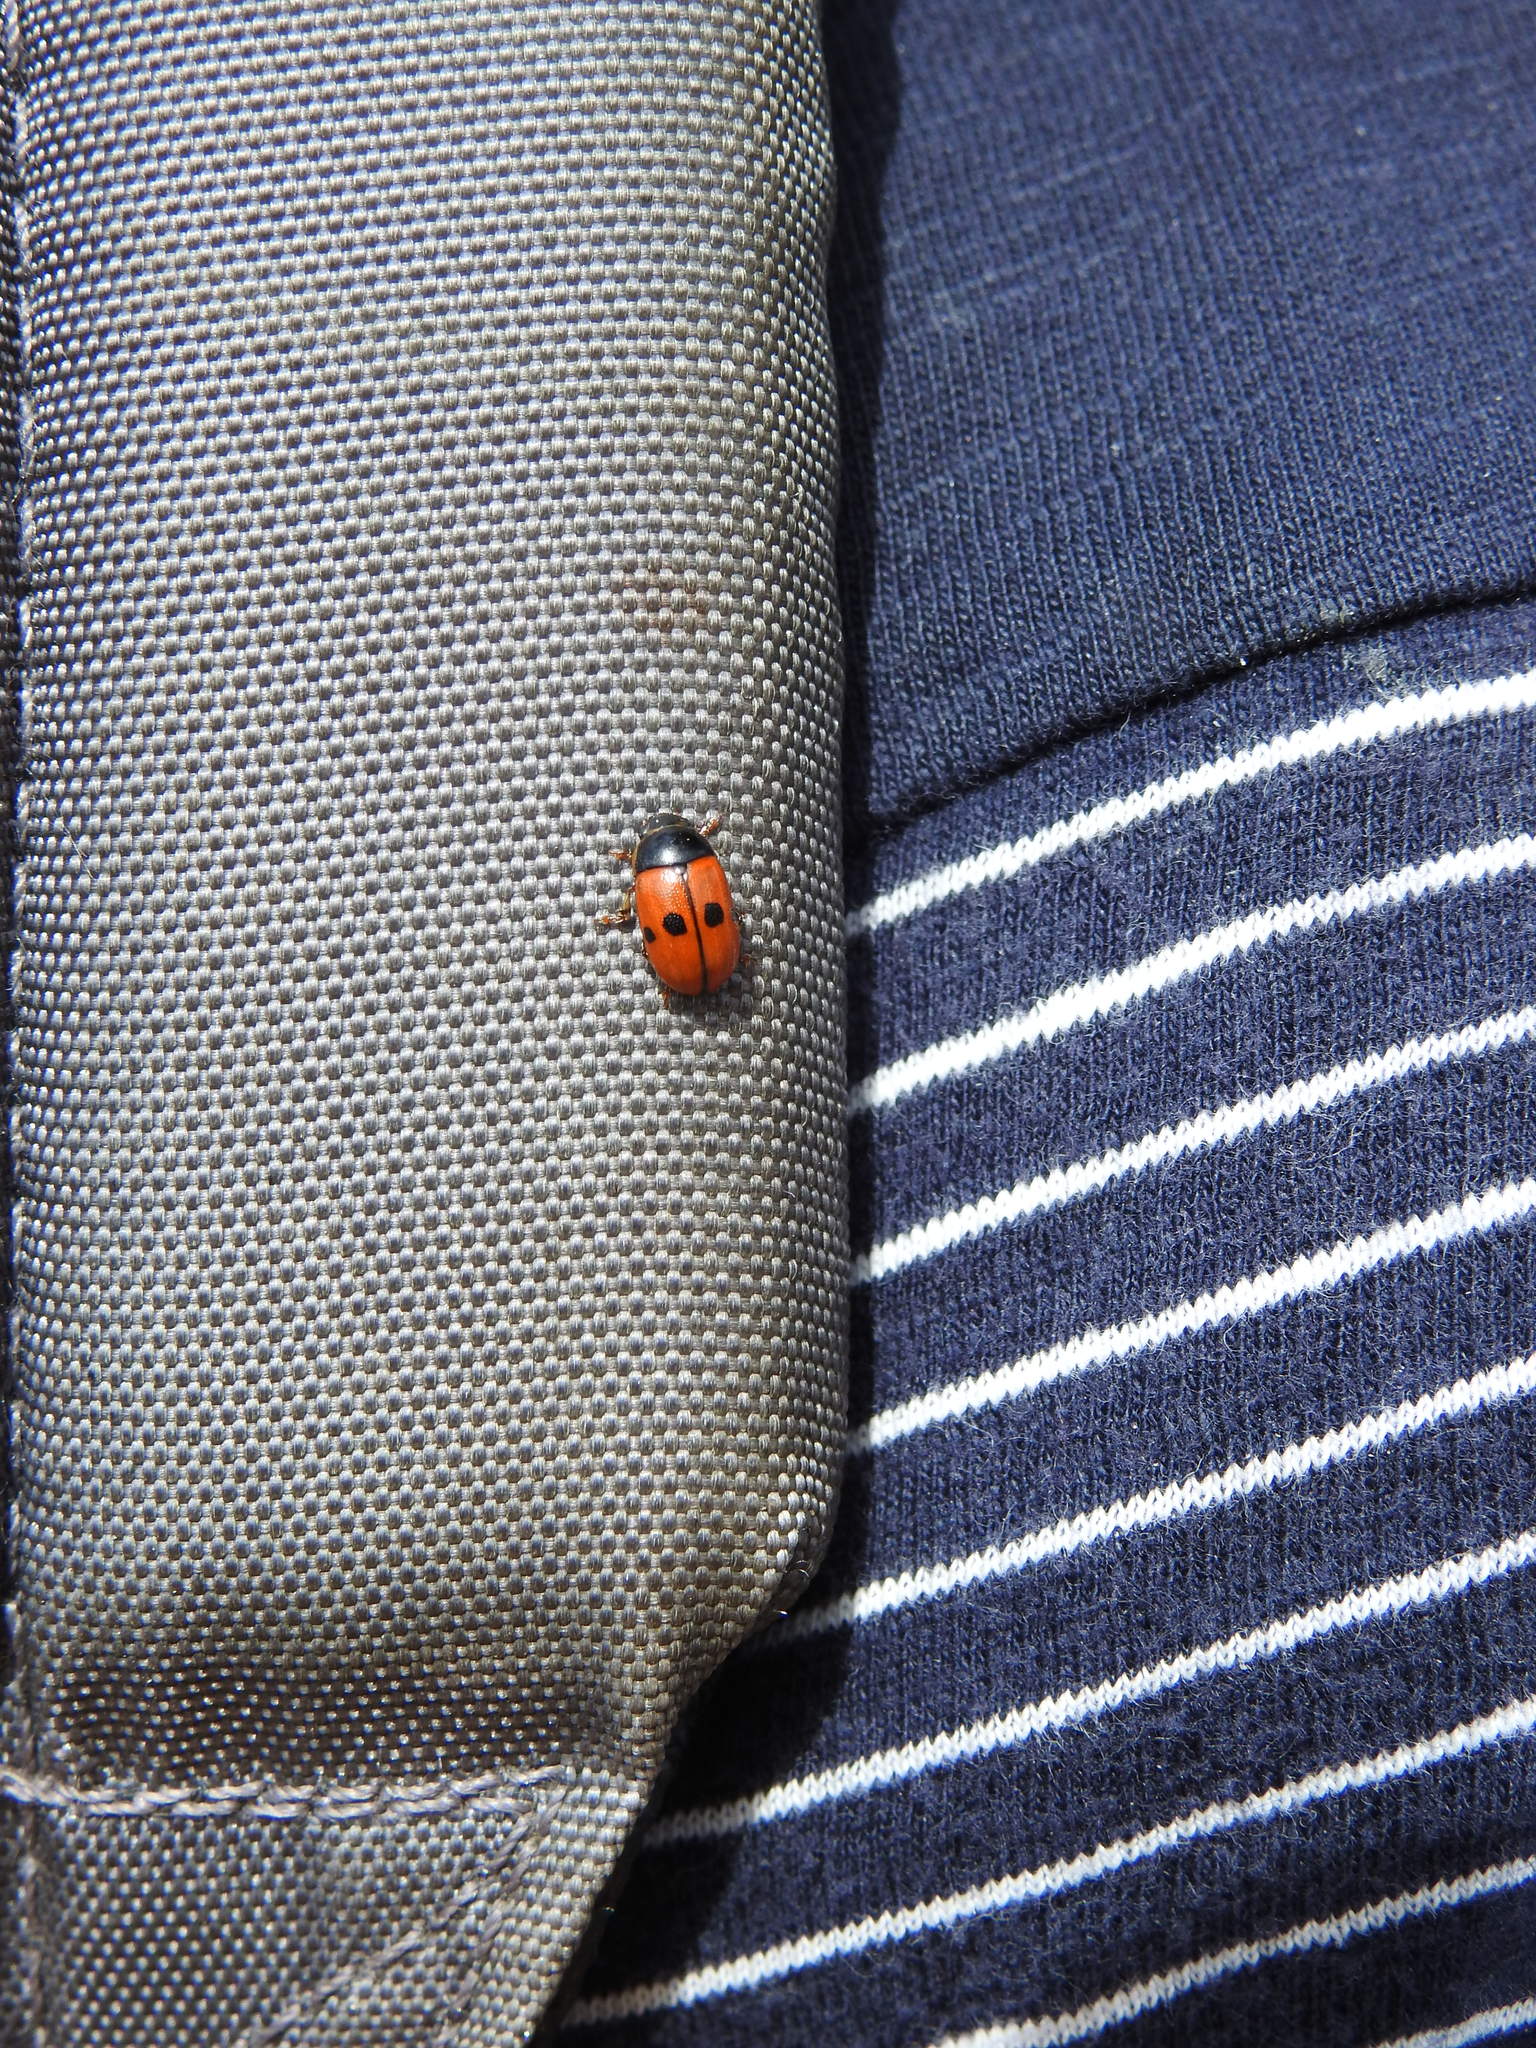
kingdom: Animalia
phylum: Arthropoda
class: Insecta
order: Coleoptera
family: Chrysomelidae
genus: Gonioctena
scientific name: Gonioctena aegrota
